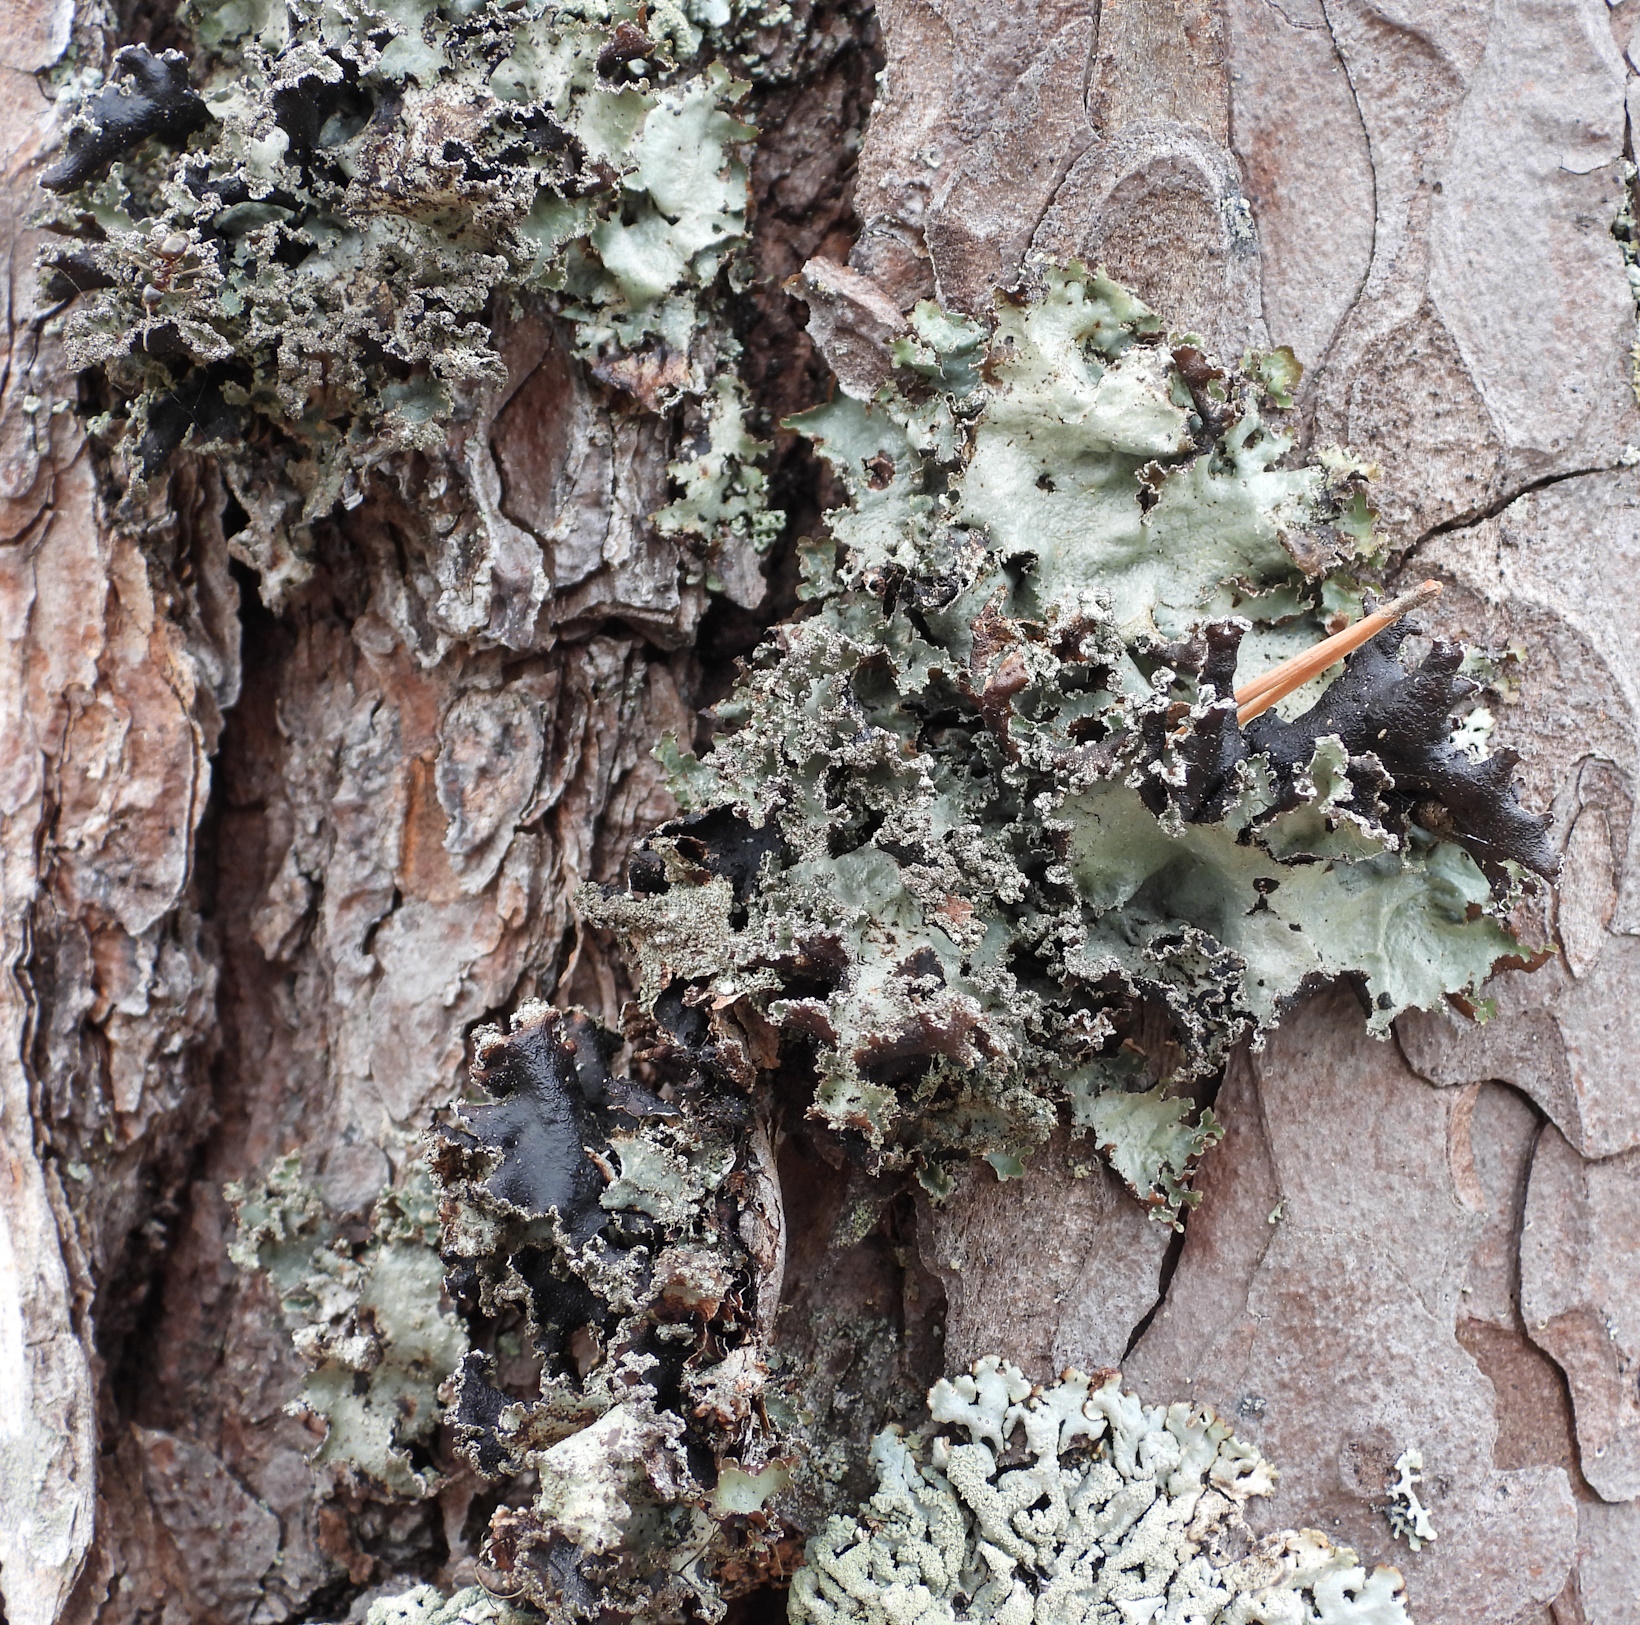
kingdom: Fungi
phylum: Ascomycota
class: Lecanoromycetes
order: Lecanorales
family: Parmeliaceae
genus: Platismatia
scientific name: Platismatia glauca
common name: Varied rag lichen
